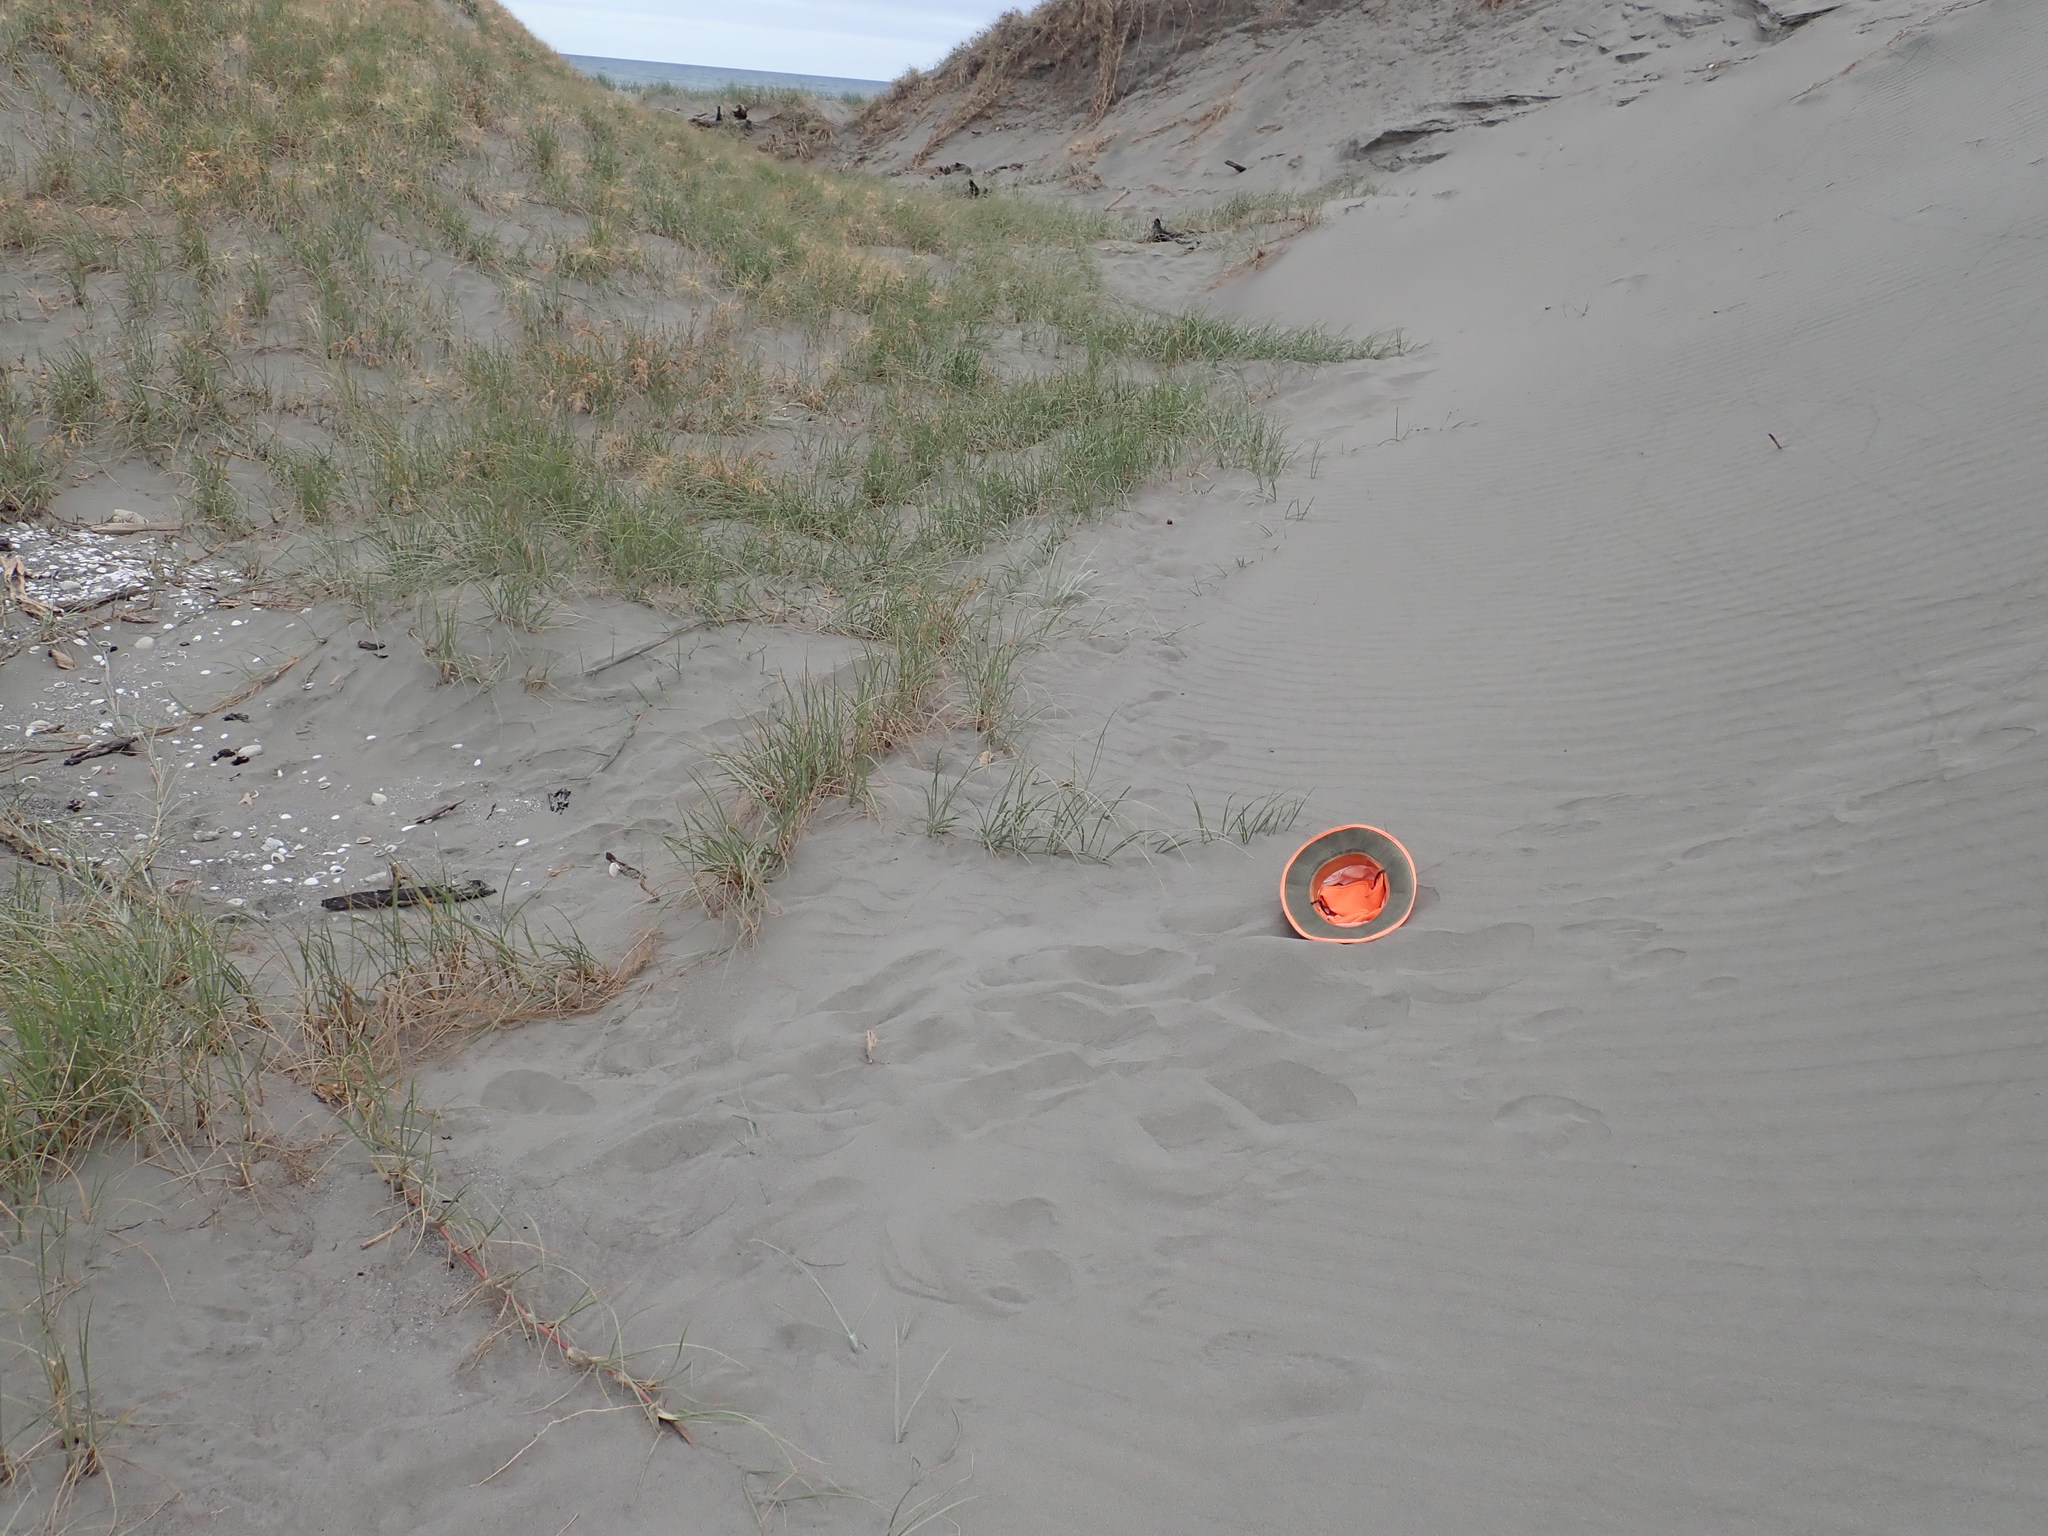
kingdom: Animalia
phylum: Arthropoda
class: Arachnida
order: Araneae
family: Lycosidae
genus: Anoteropsis
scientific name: Anoteropsis litoralis
